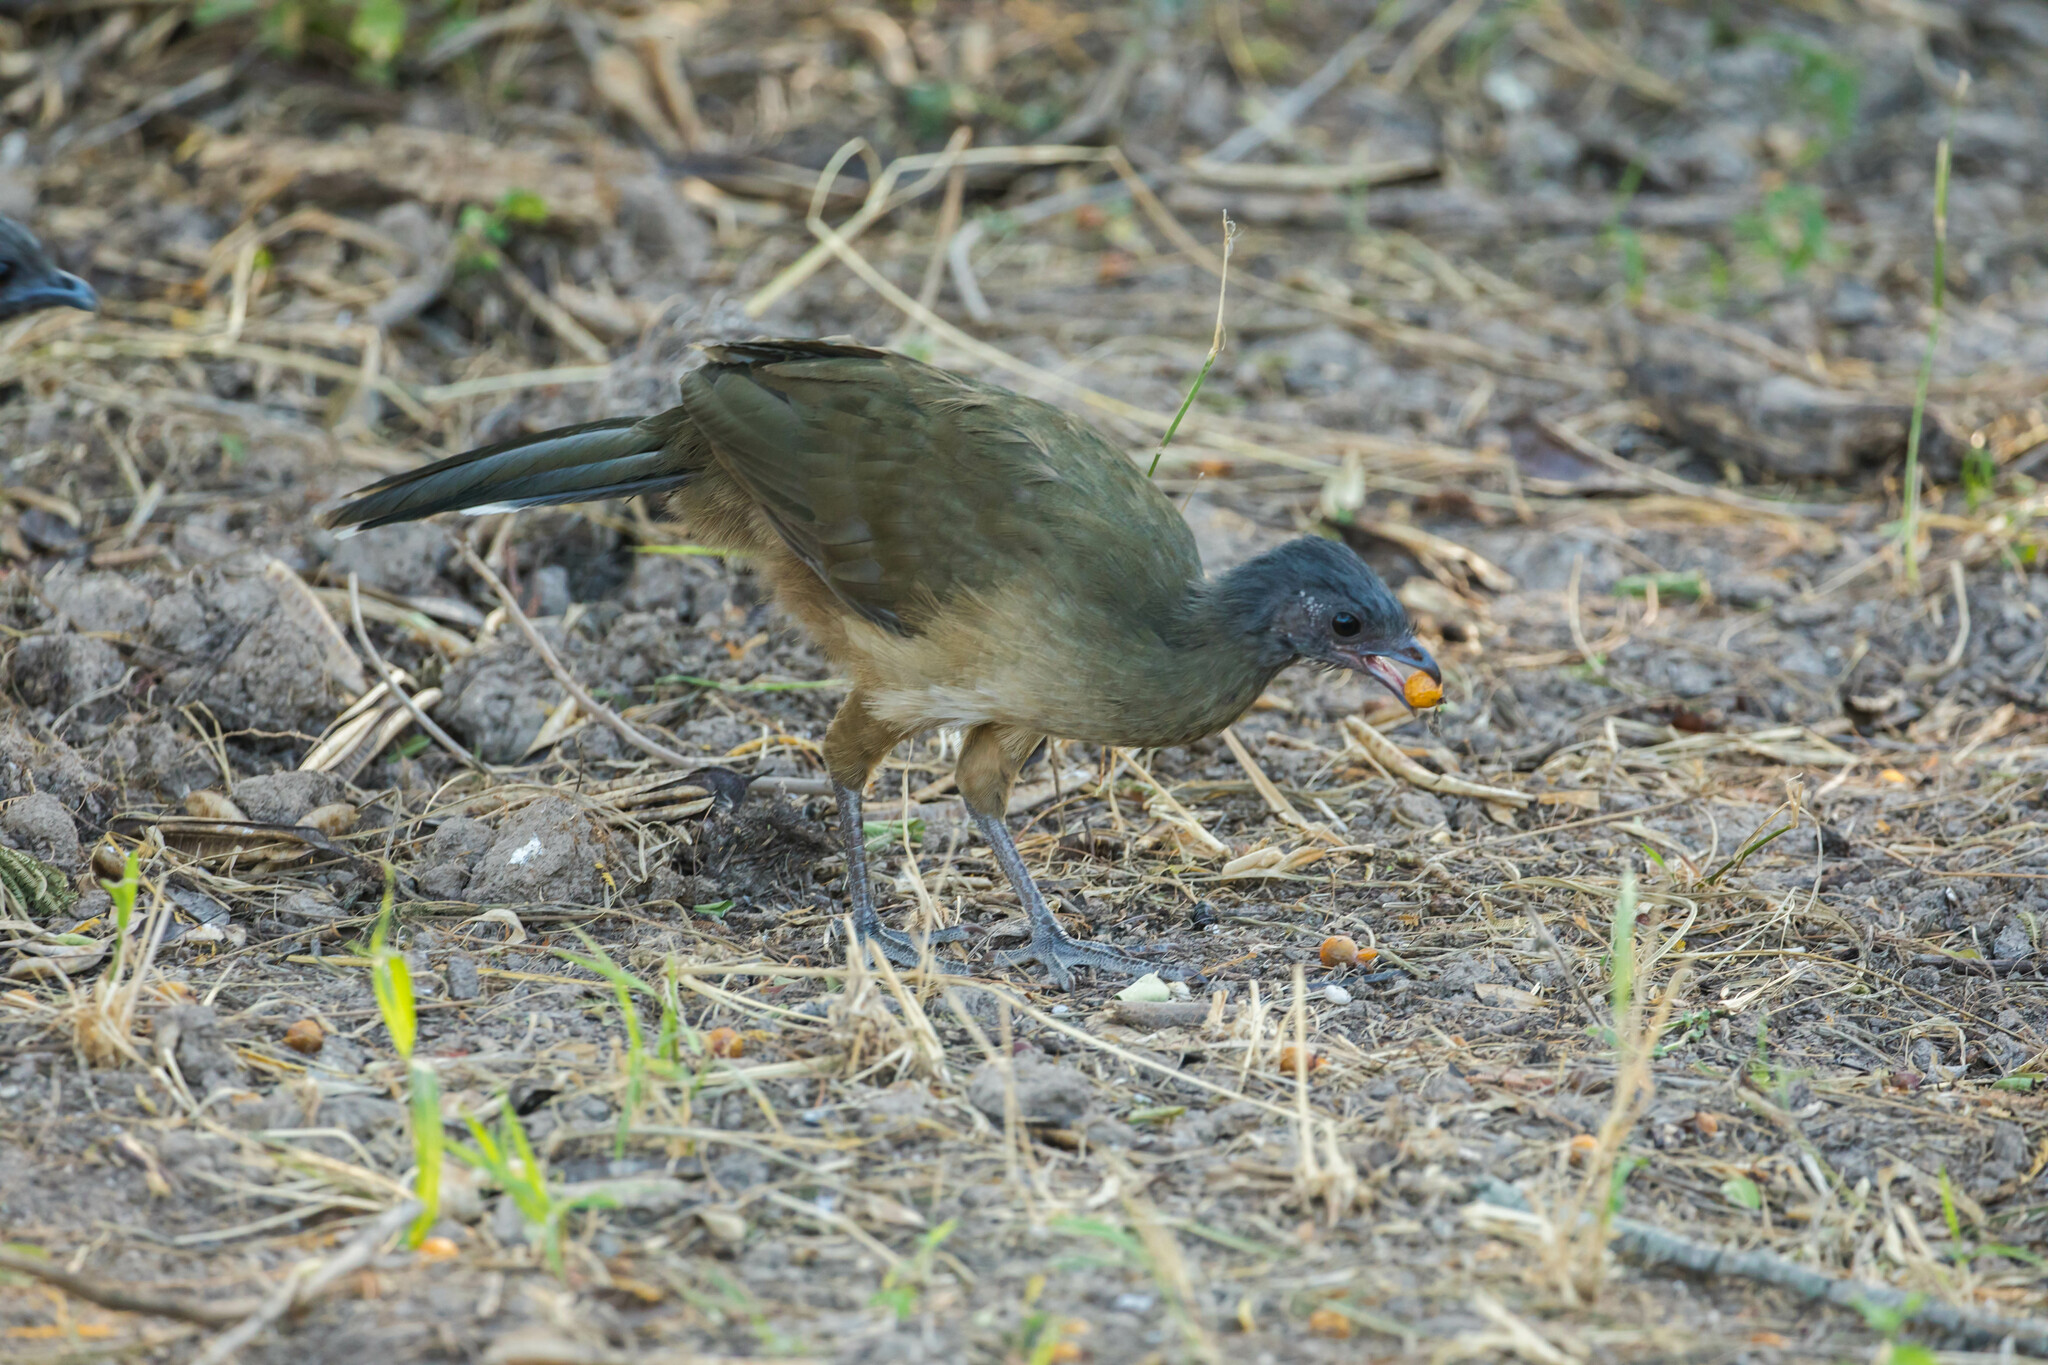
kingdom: Animalia
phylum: Chordata
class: Aves
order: Galliformes
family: Cracidae
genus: Ortalis
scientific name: Ortalis vetula
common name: Plain chachalaca
